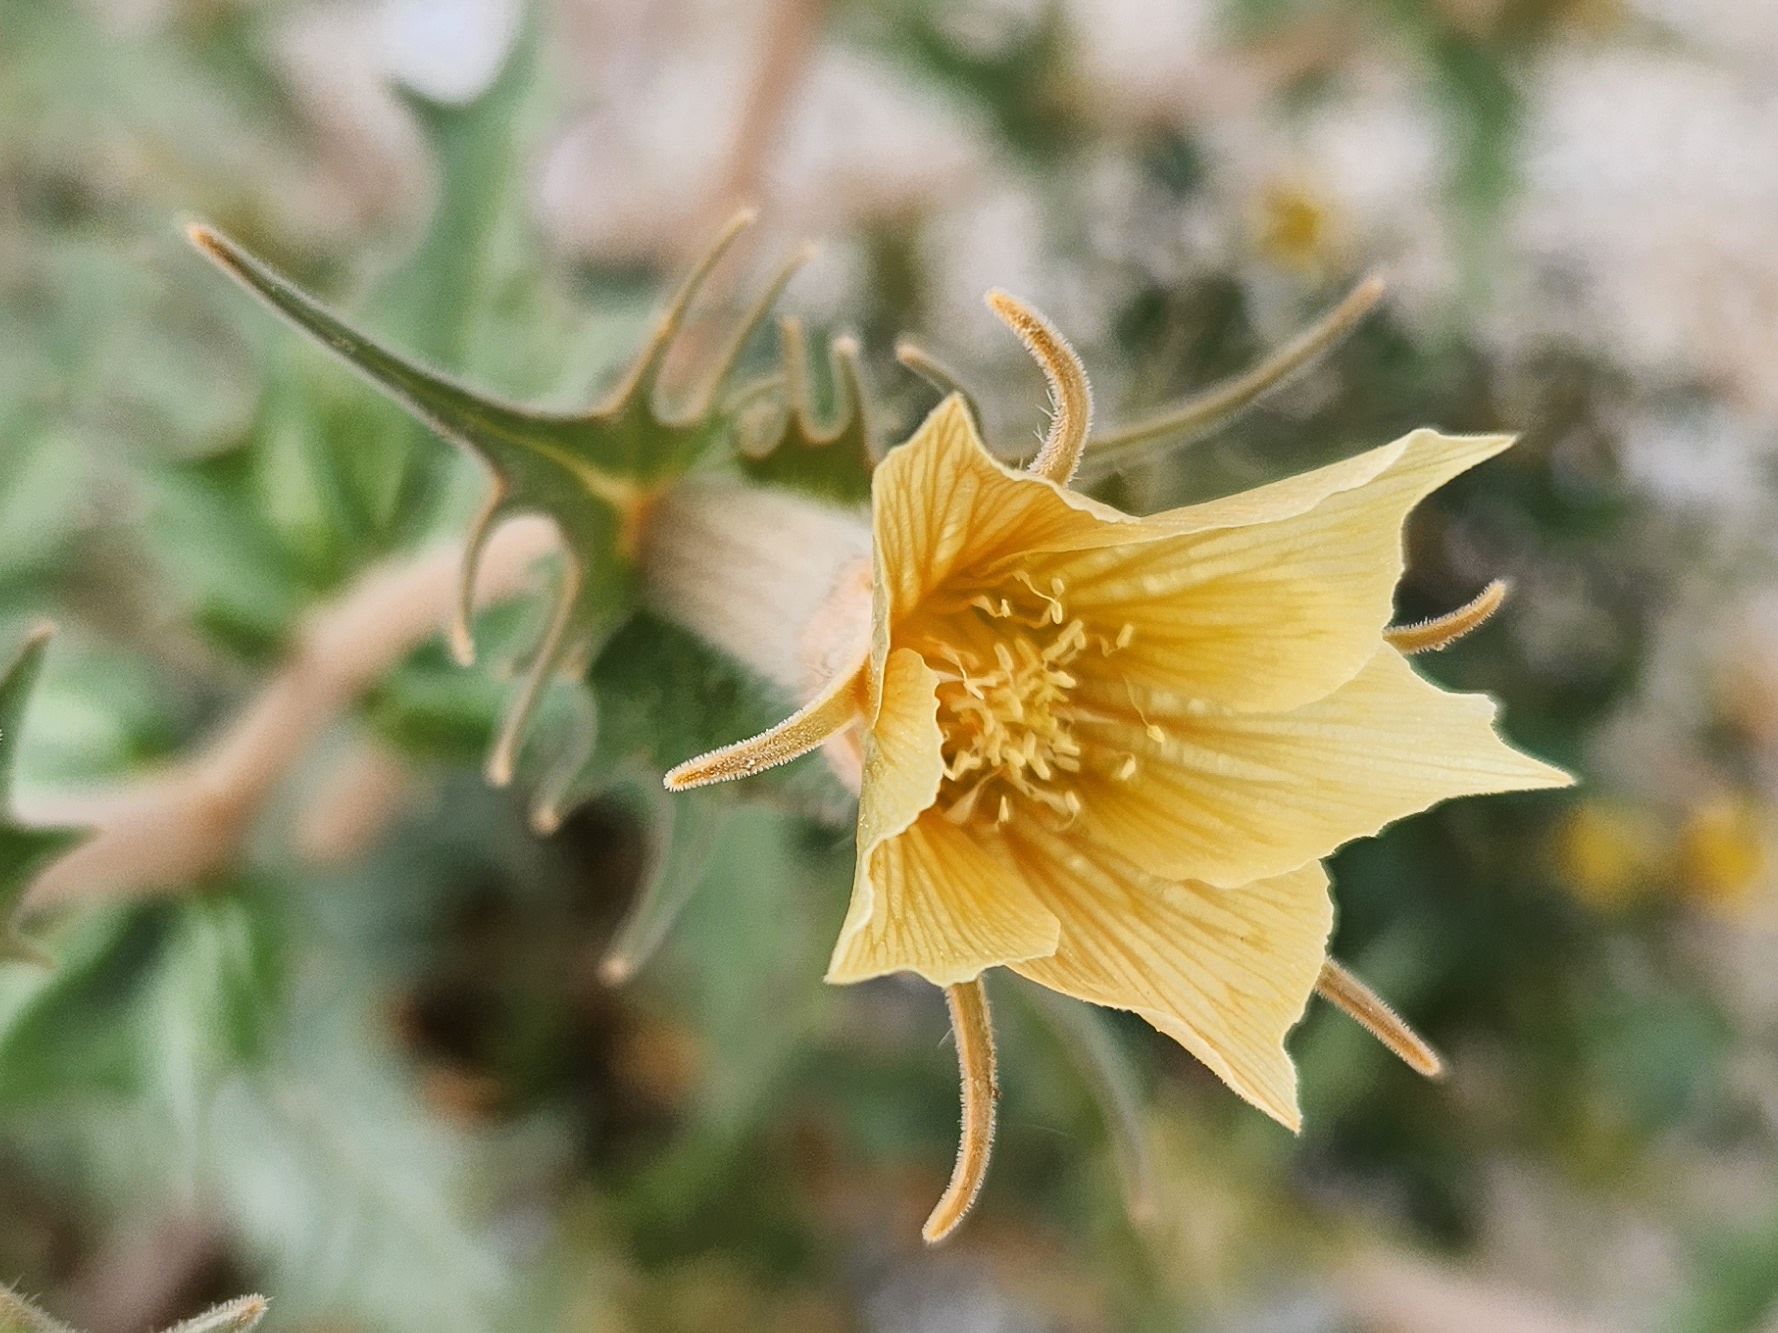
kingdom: Plantae
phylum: Tracheophyta
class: Magnoliopsida
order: Cornales
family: Loasaceae
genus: Mentzelia
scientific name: Mentzelia hirsutissima
